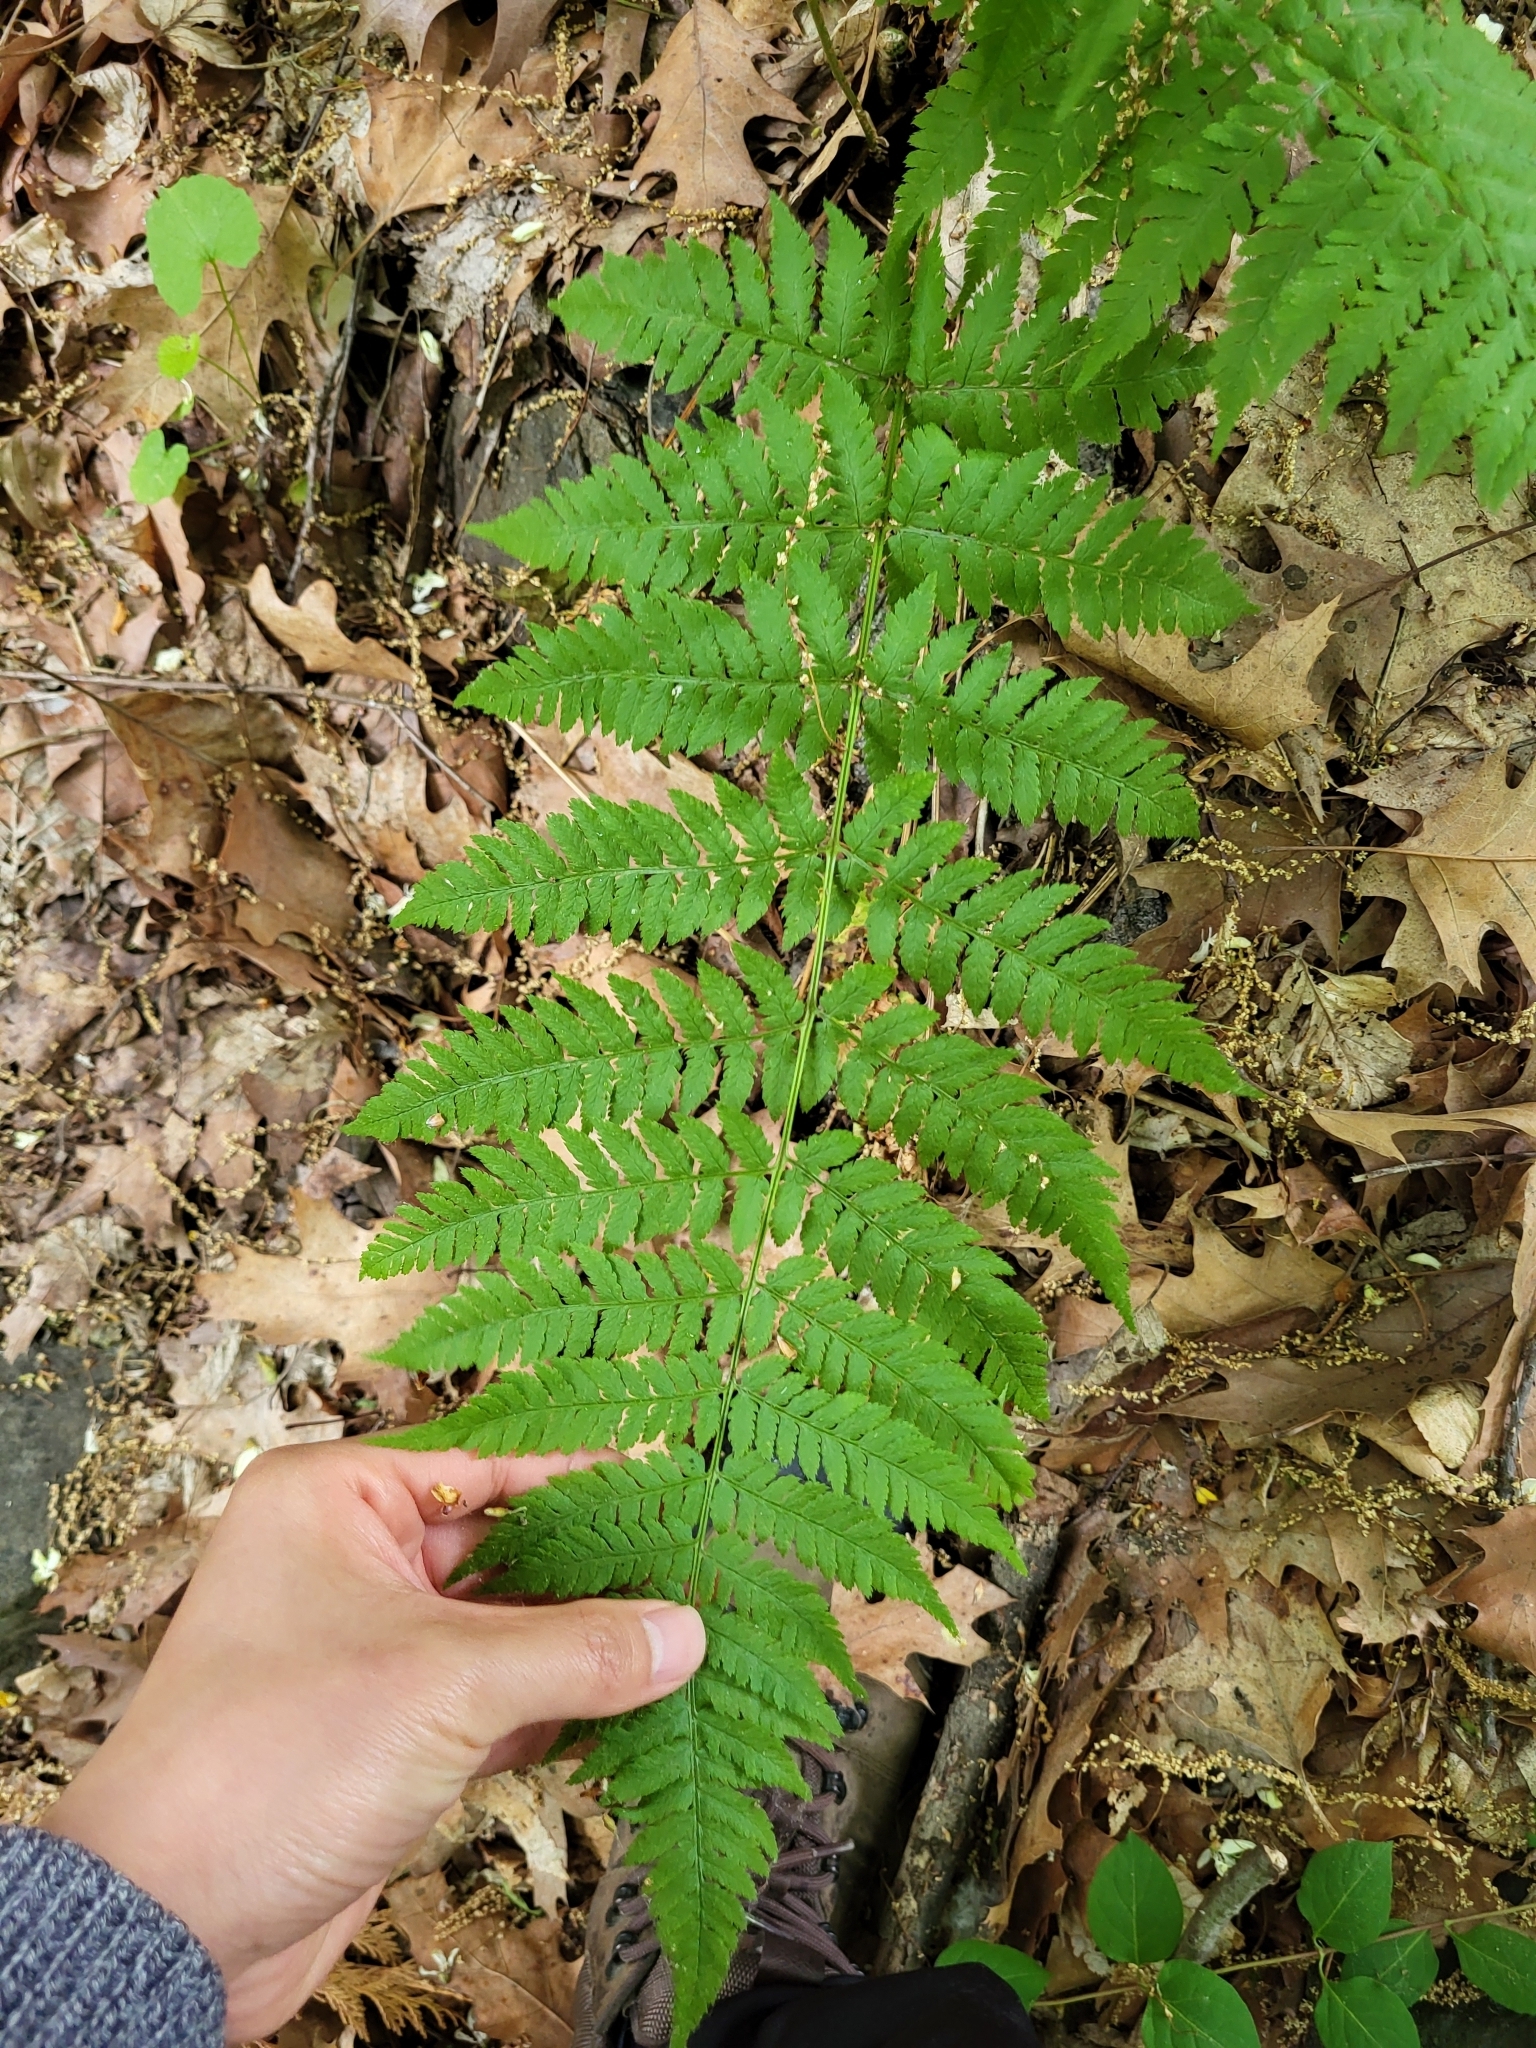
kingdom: Plantae
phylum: Tracheophyta
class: Polypodiopsida
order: Polypodiales
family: Dryopteridaceae
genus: Dryopteris
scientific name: Dryopteris carthusiana
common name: Narrow buckler-fern
